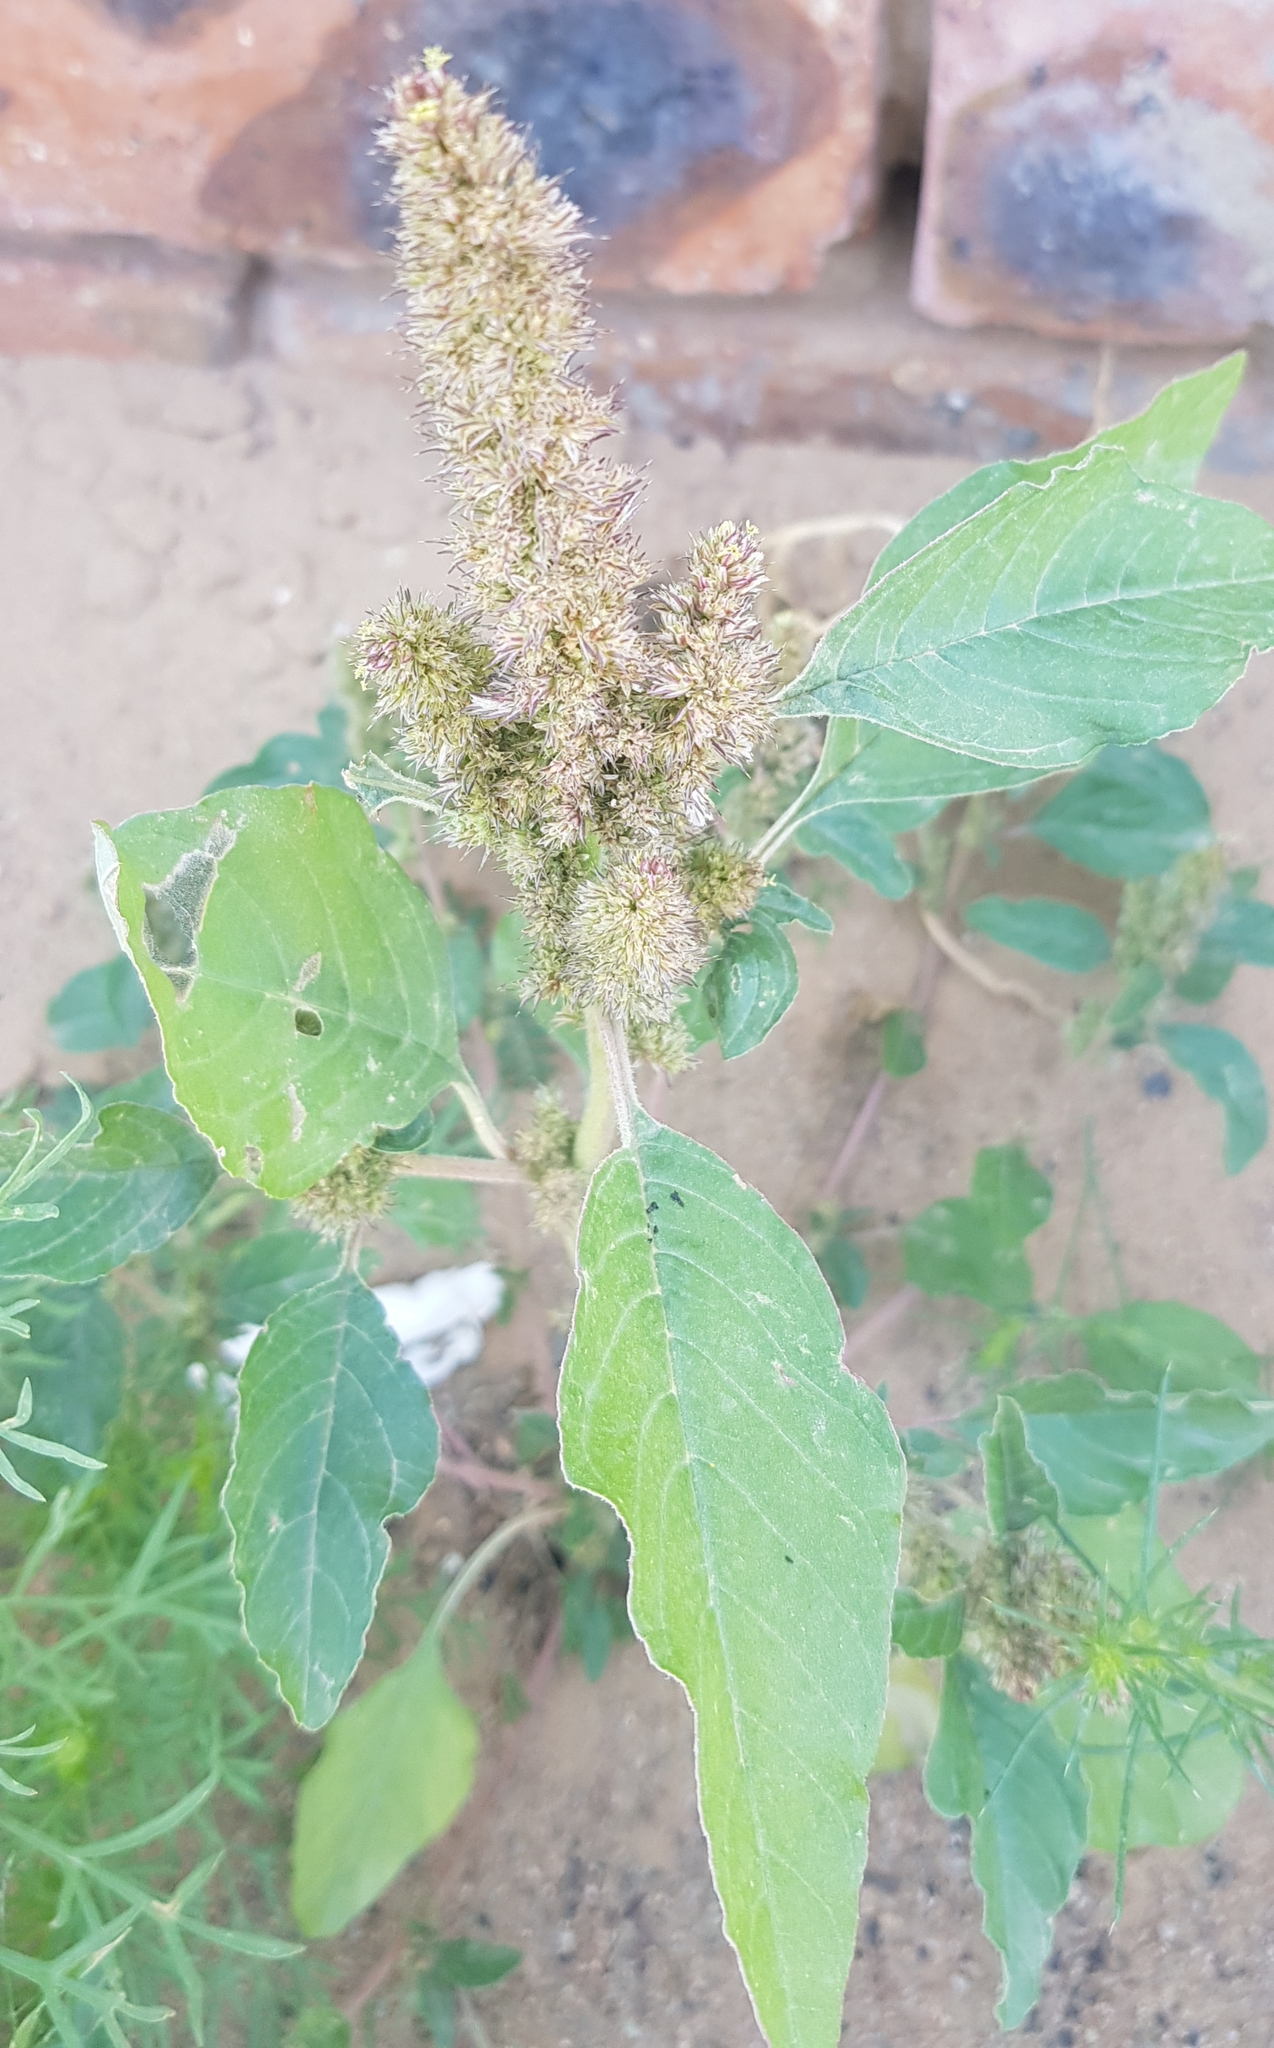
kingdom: Plantae
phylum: Tracheophyta
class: Magnoliopsida
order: Caryophyllales
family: Amaranthaceae
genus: Amaranthus
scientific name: Amaranthus retroflexus
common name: Redroot amaranth
